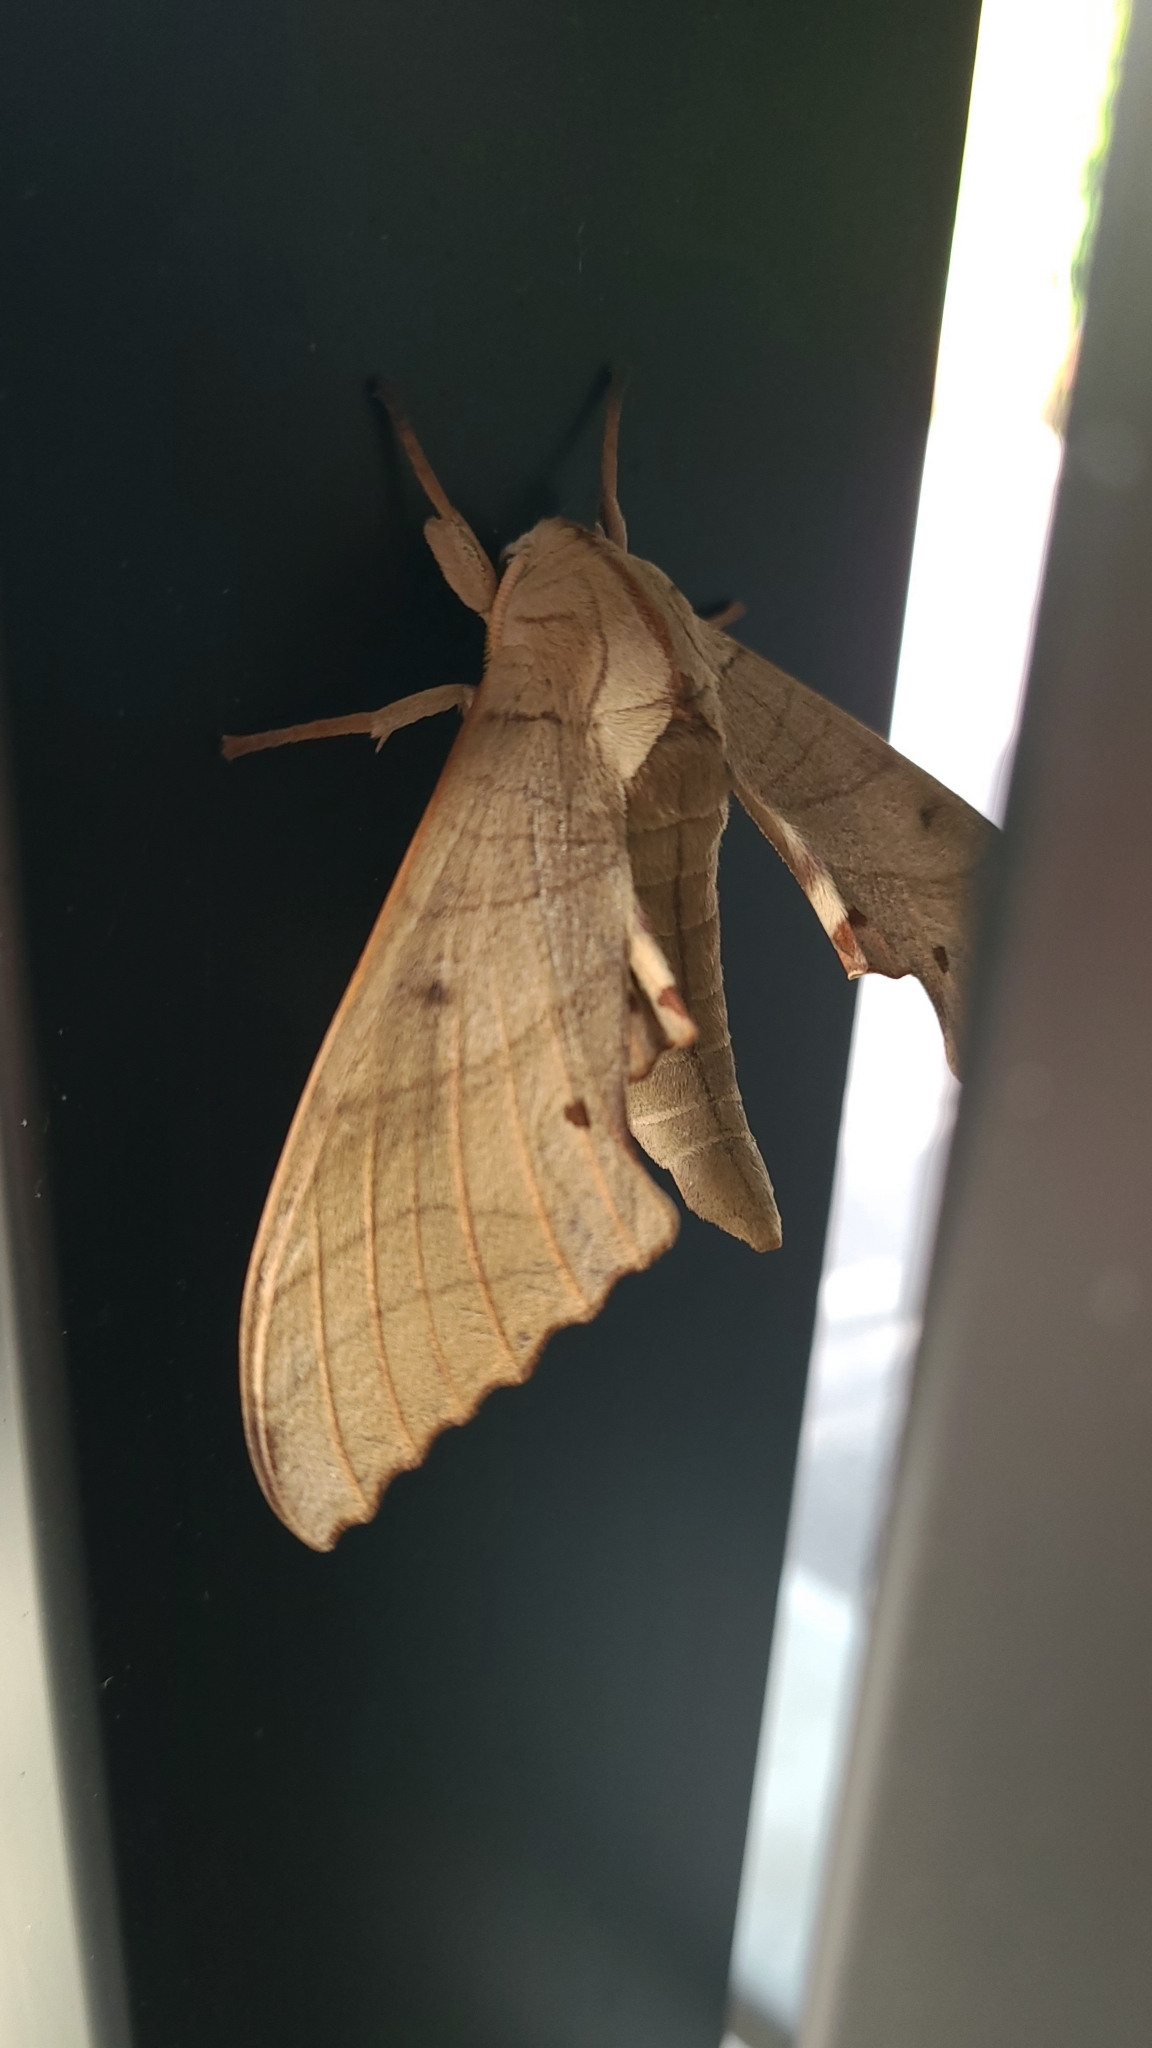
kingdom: Animalia
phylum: Arthropoda
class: Insecta
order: Lepidoptera
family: Sphingidae
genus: Marumba
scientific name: Marumba sperchius
